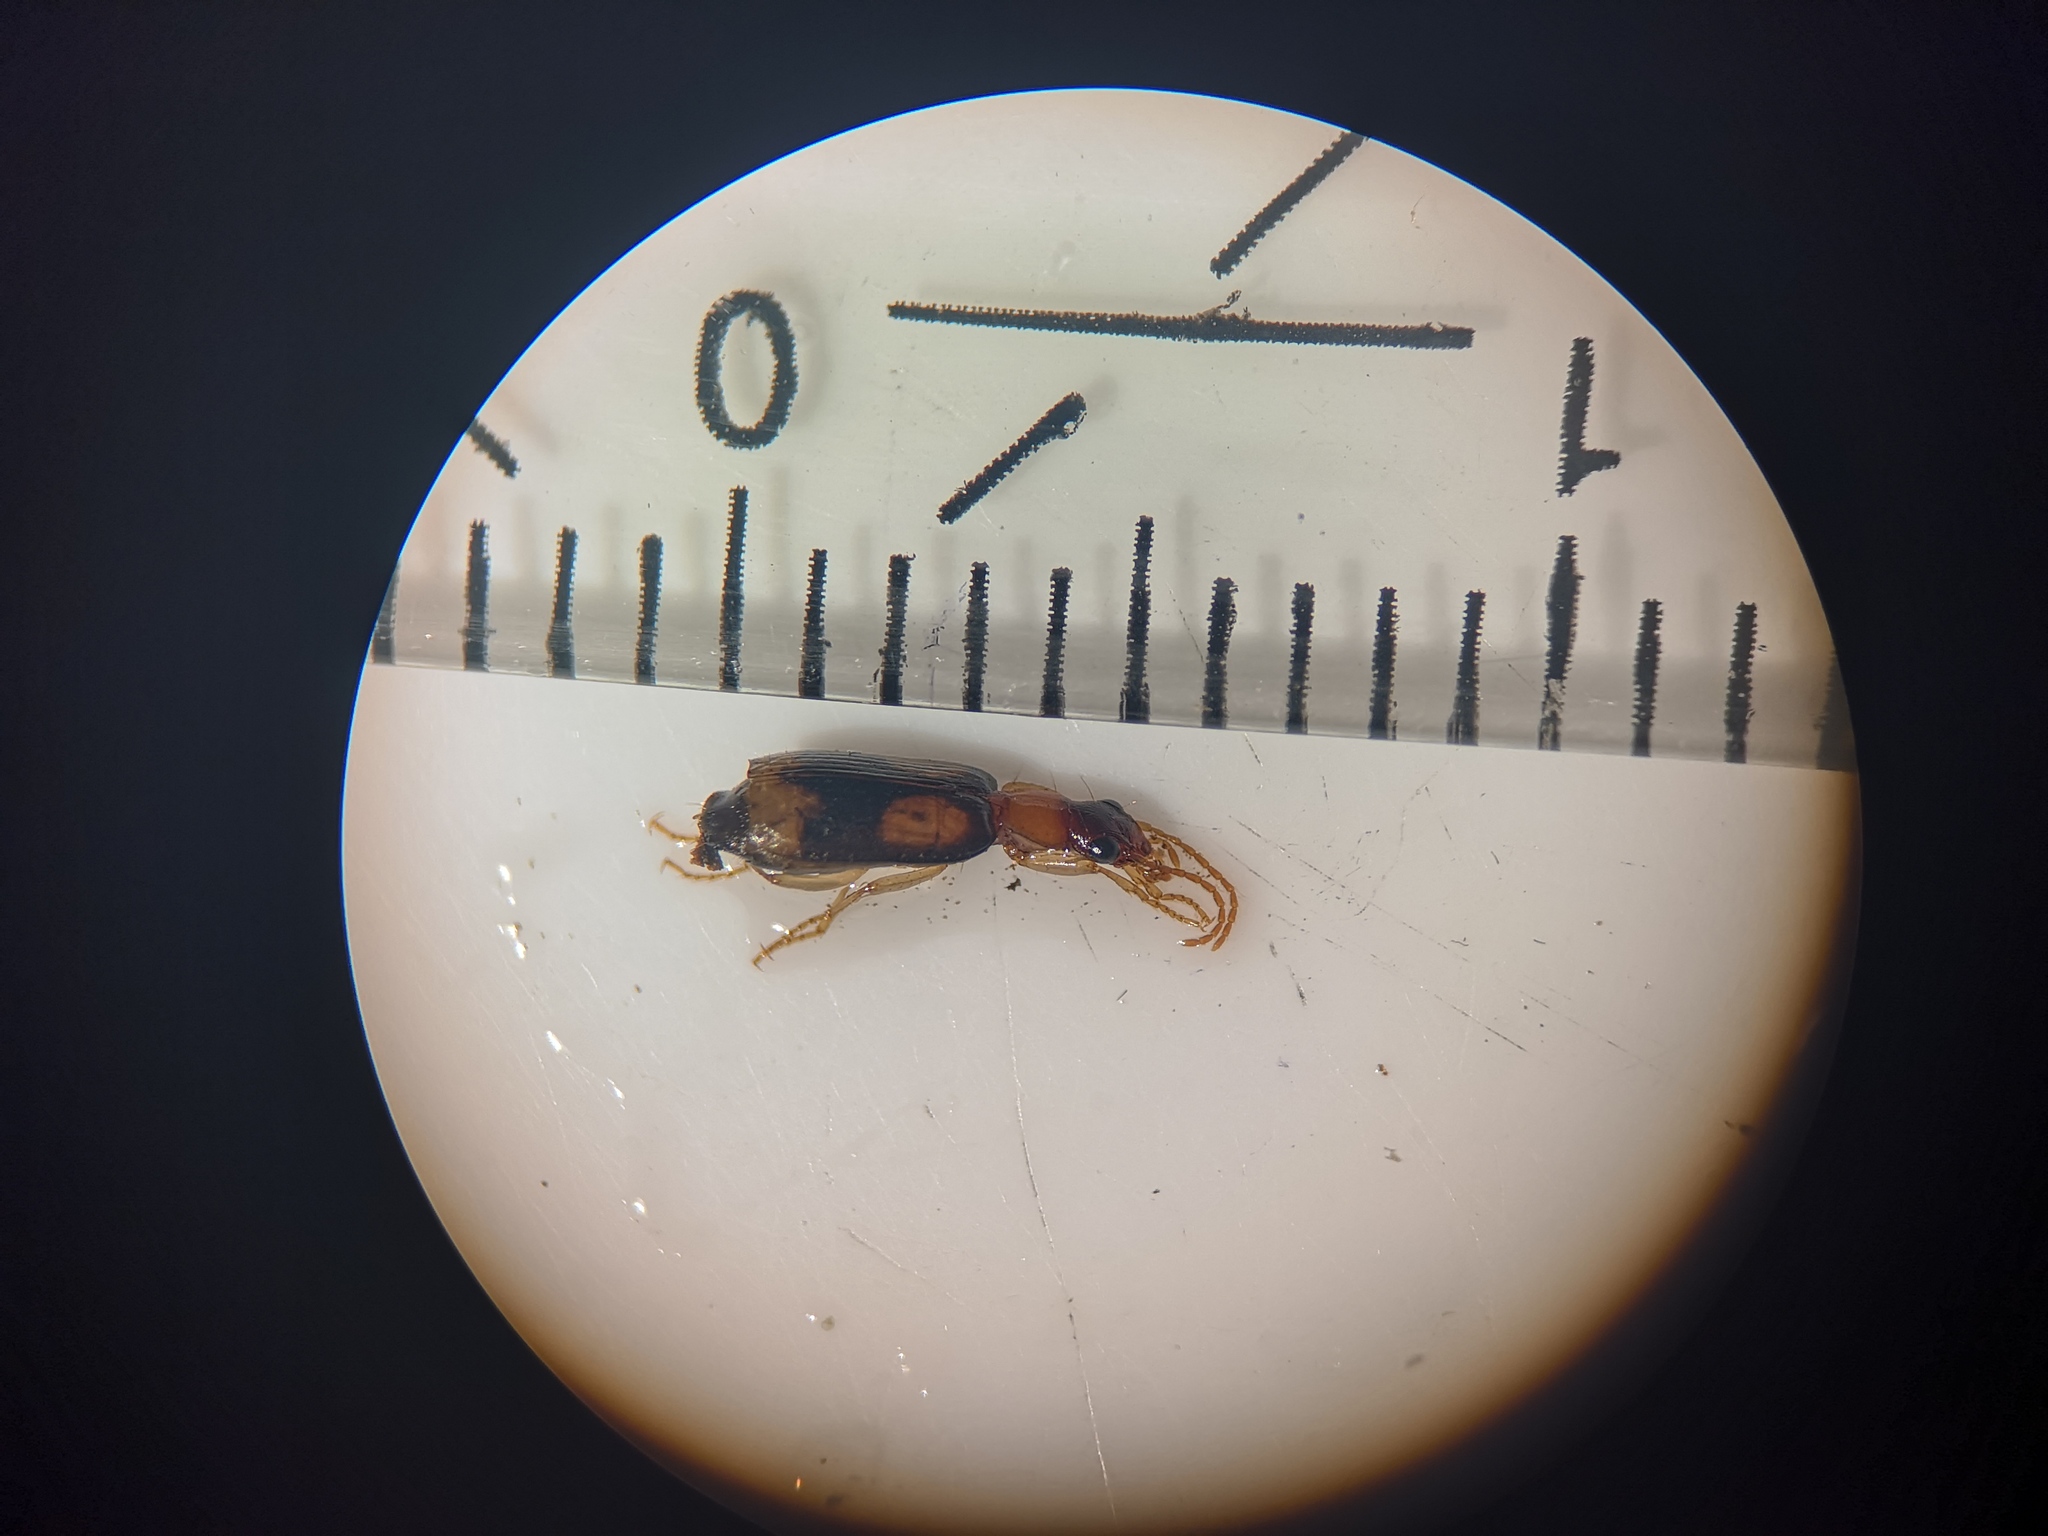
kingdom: Animalia
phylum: Arthropoda
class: Insecta
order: Coleoptera
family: Carabidae
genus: Dromius
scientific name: Dromius quadrimaculatus
